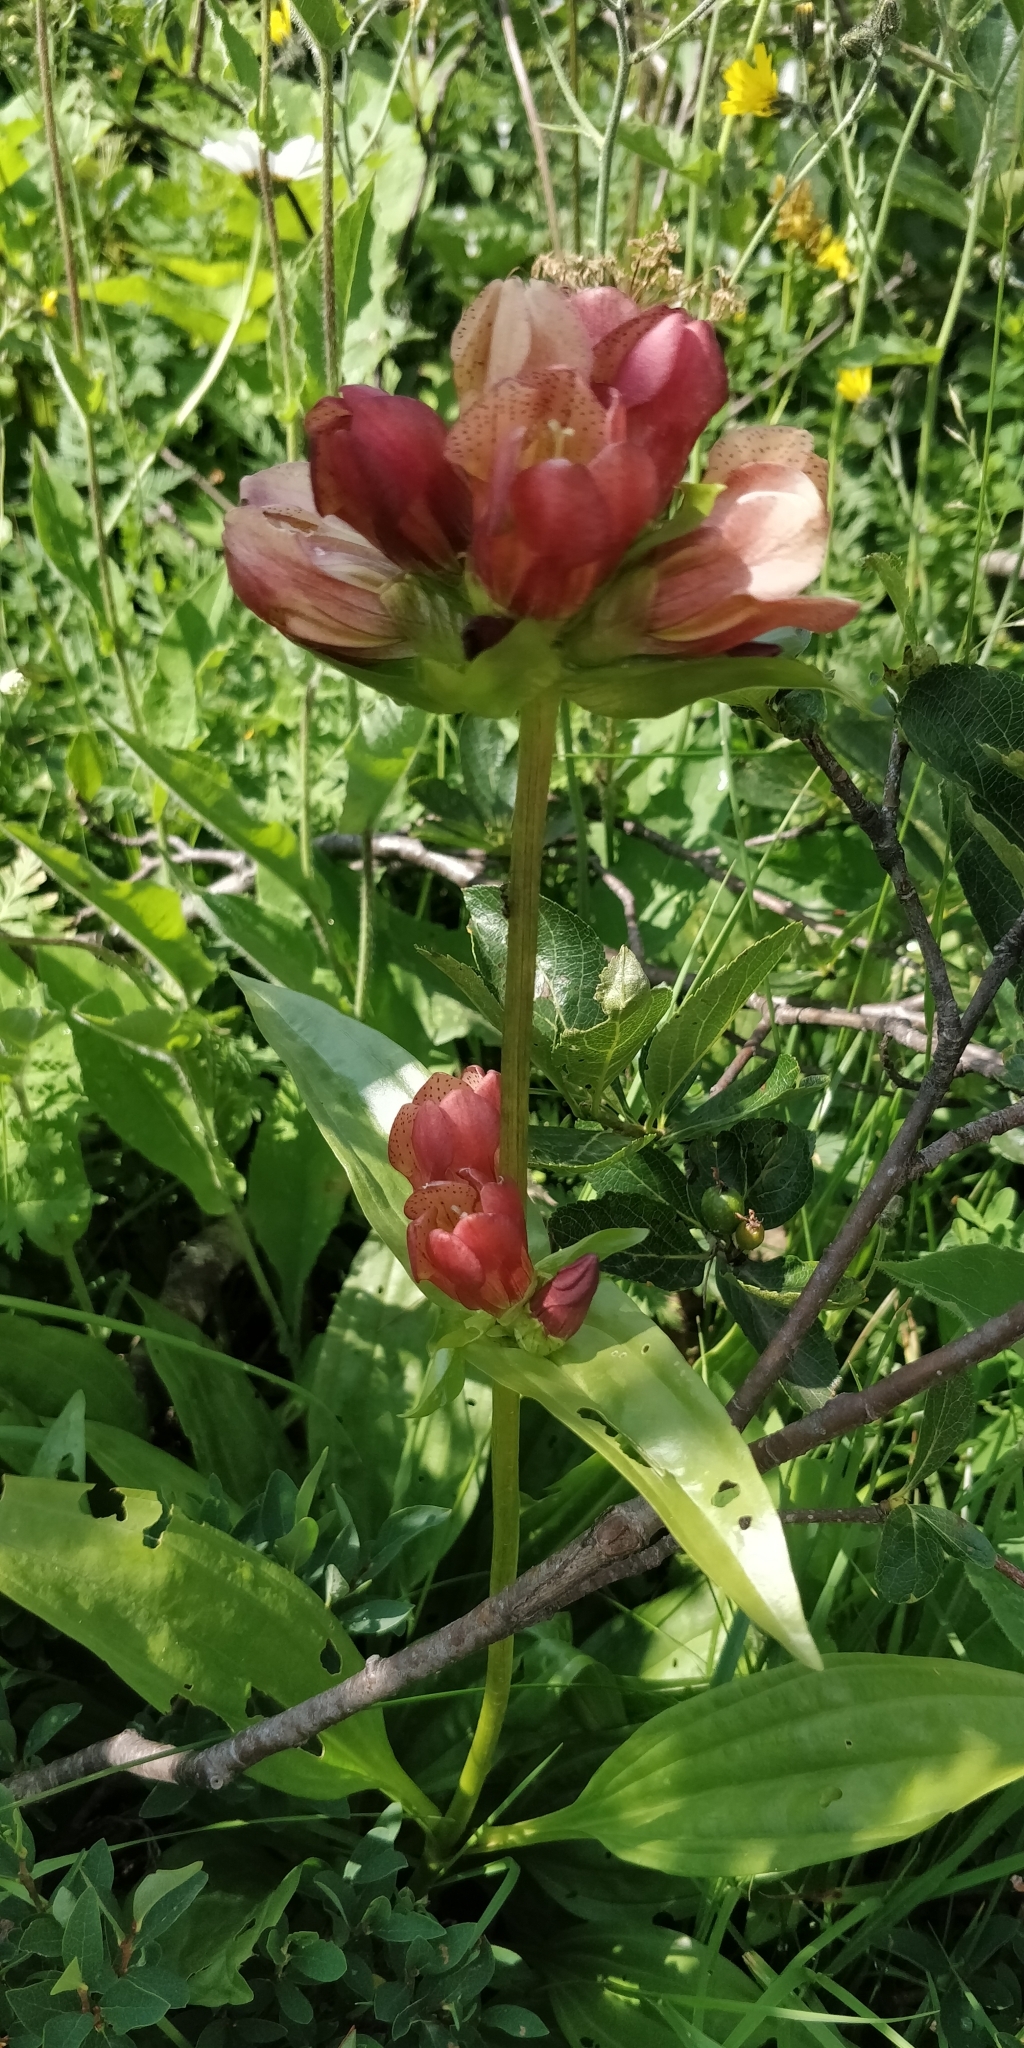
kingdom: Plantae
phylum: Tracheophyta
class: Magnoliopsida
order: Gentianales
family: Gentianaceae
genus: Gentiana
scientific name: Gentiana purpurea
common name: Purple gentian
